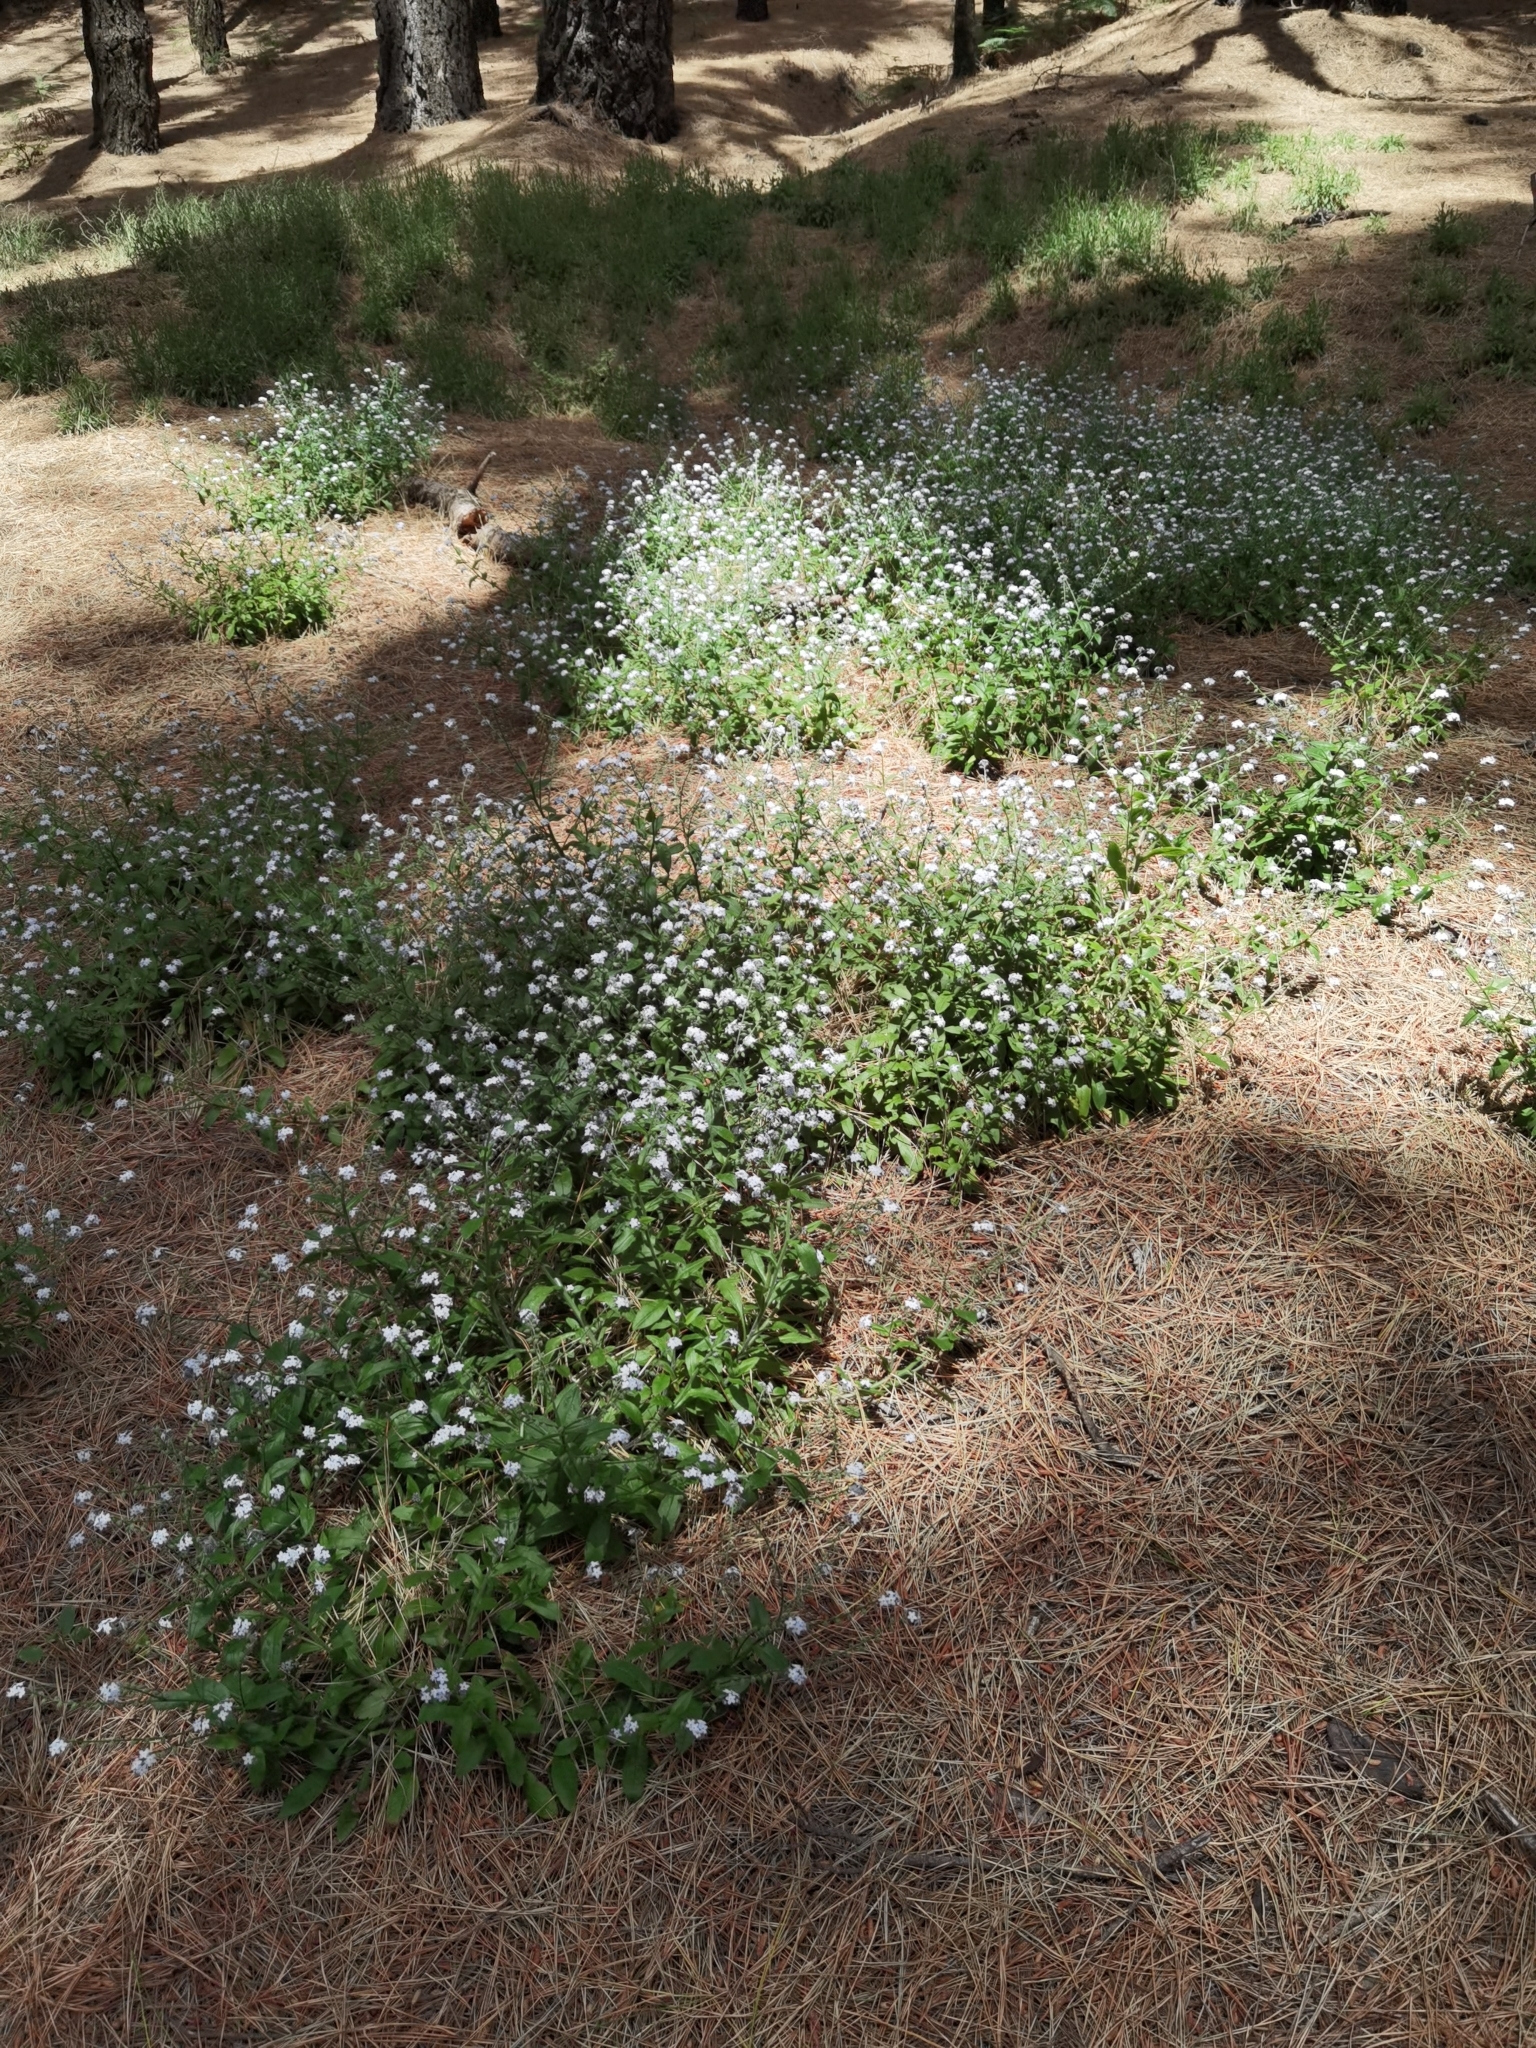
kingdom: Plantae
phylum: Tracheophyta
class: Magnoliopsida
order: Boraginales
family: Boraginaceae
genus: Myosotis
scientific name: Myosotis latifolia
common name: Broadleaf forget-me-not
